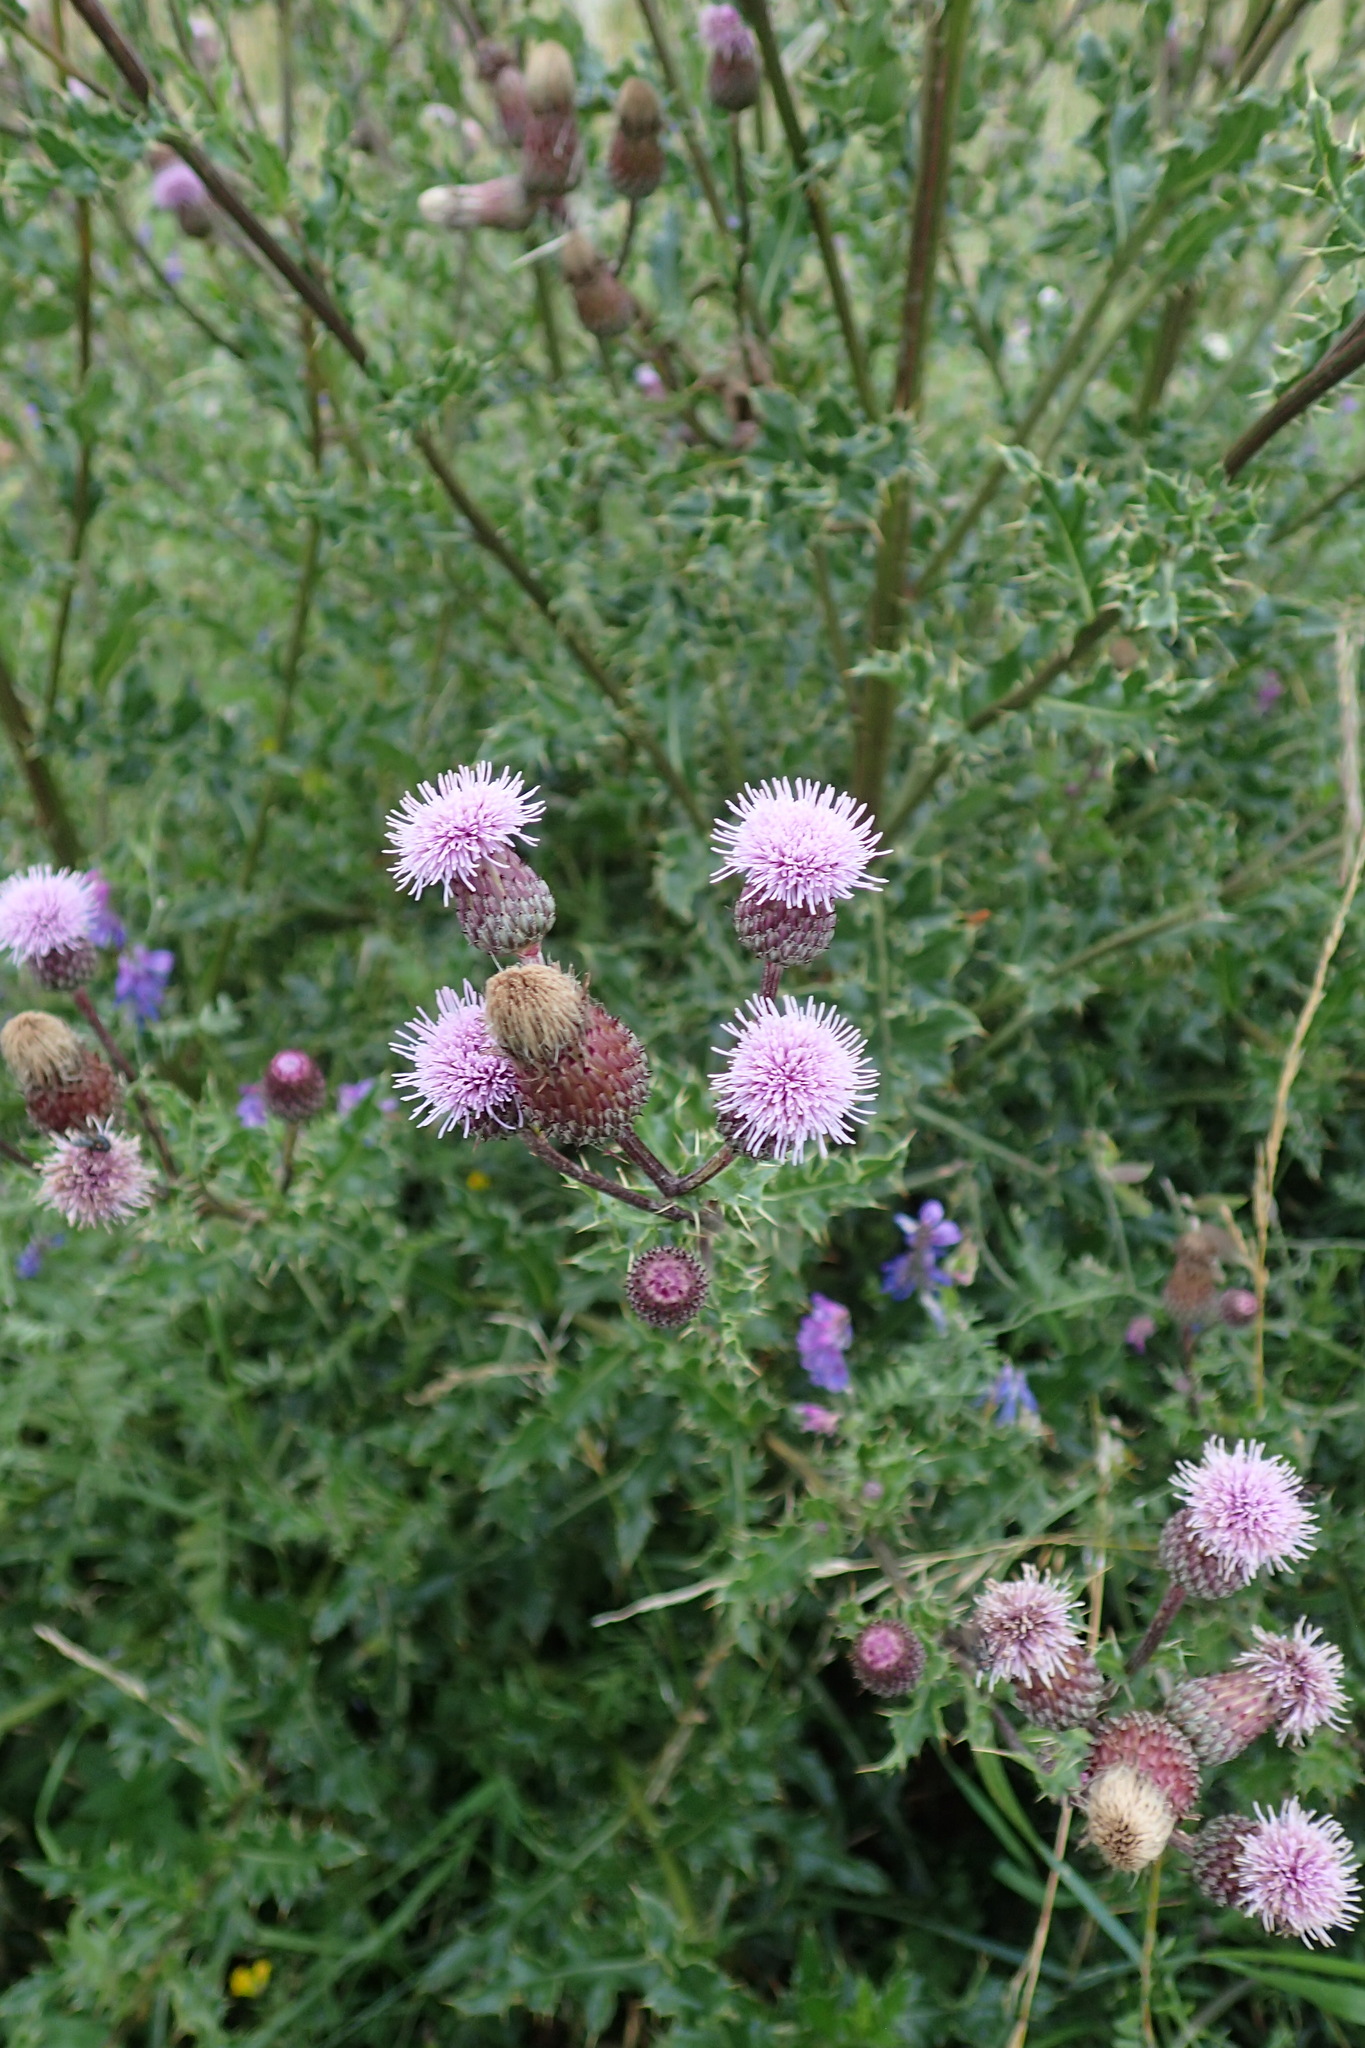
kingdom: Plantae
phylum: Tracheophyta
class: Magnoliopsida
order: Asterales
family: Asteraceae
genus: Cirsium
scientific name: Cirsium arvense
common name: Creeping thistle
